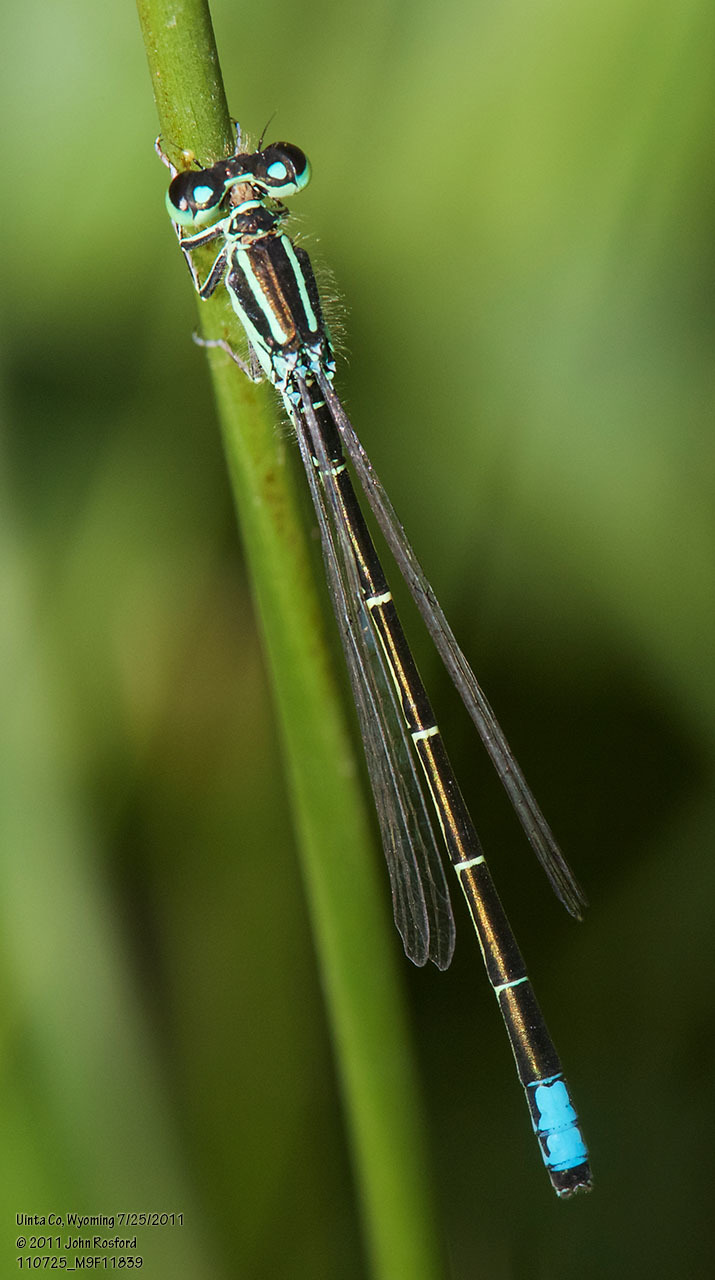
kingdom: Animalia
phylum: Arthropoda
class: Insecta
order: Odonata
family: Coenagrionidae
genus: Ischnura
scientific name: Ischnura perparva
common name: Western forktail
